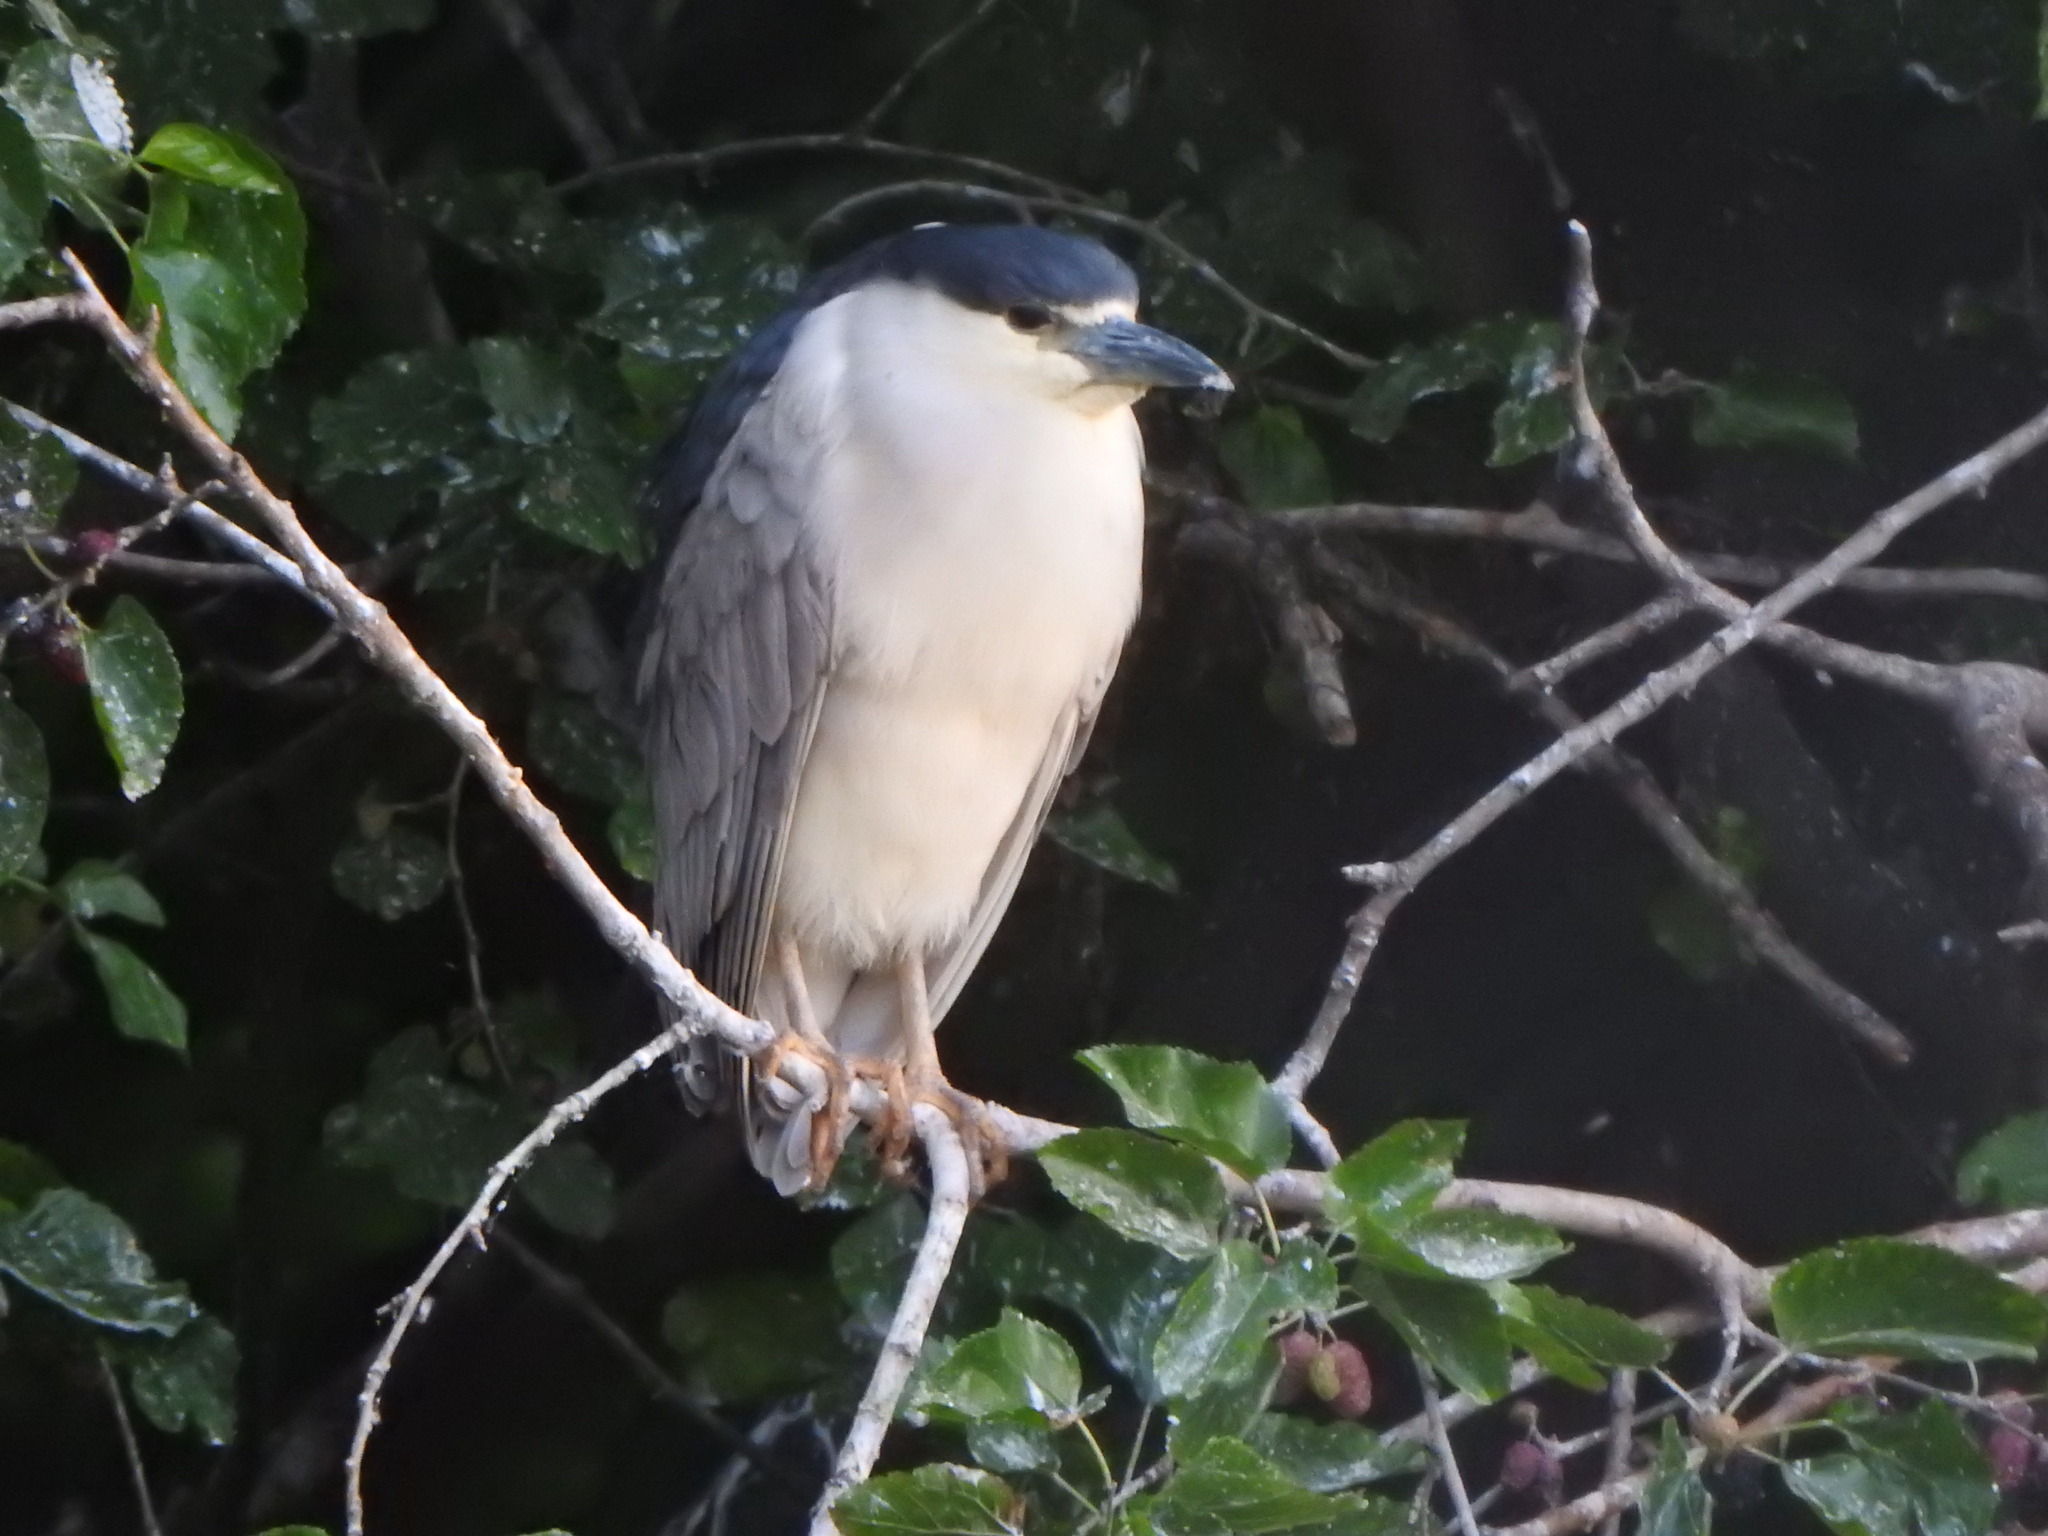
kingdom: Animalia
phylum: Chordata
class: Aves
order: Pelecaniformes
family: Ardeidae
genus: Nycticorax
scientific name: Nycticorax nycticorax
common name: Black-crowned night heron
